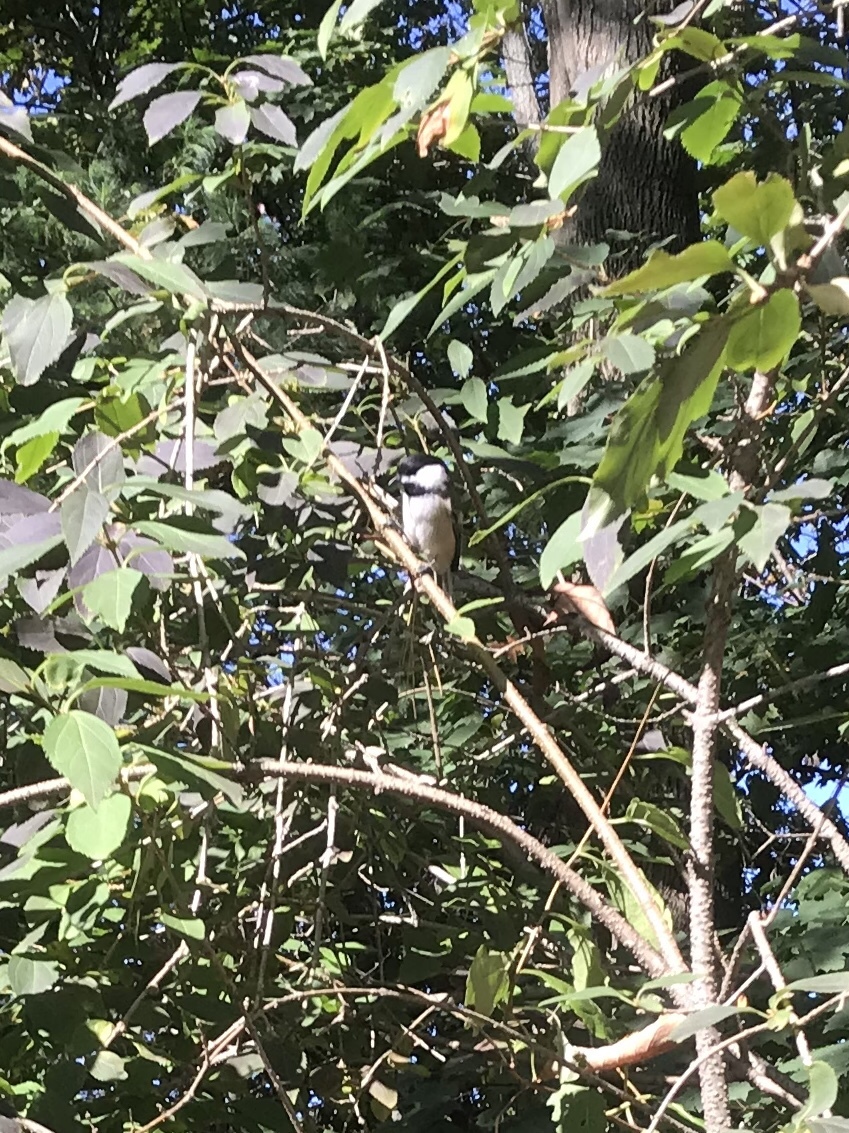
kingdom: Animalia
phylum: Chordata
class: Aves
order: Passeriformes
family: Paridae
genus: Poecile
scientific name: Poecile atricapillus
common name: Black-capped chickadee
